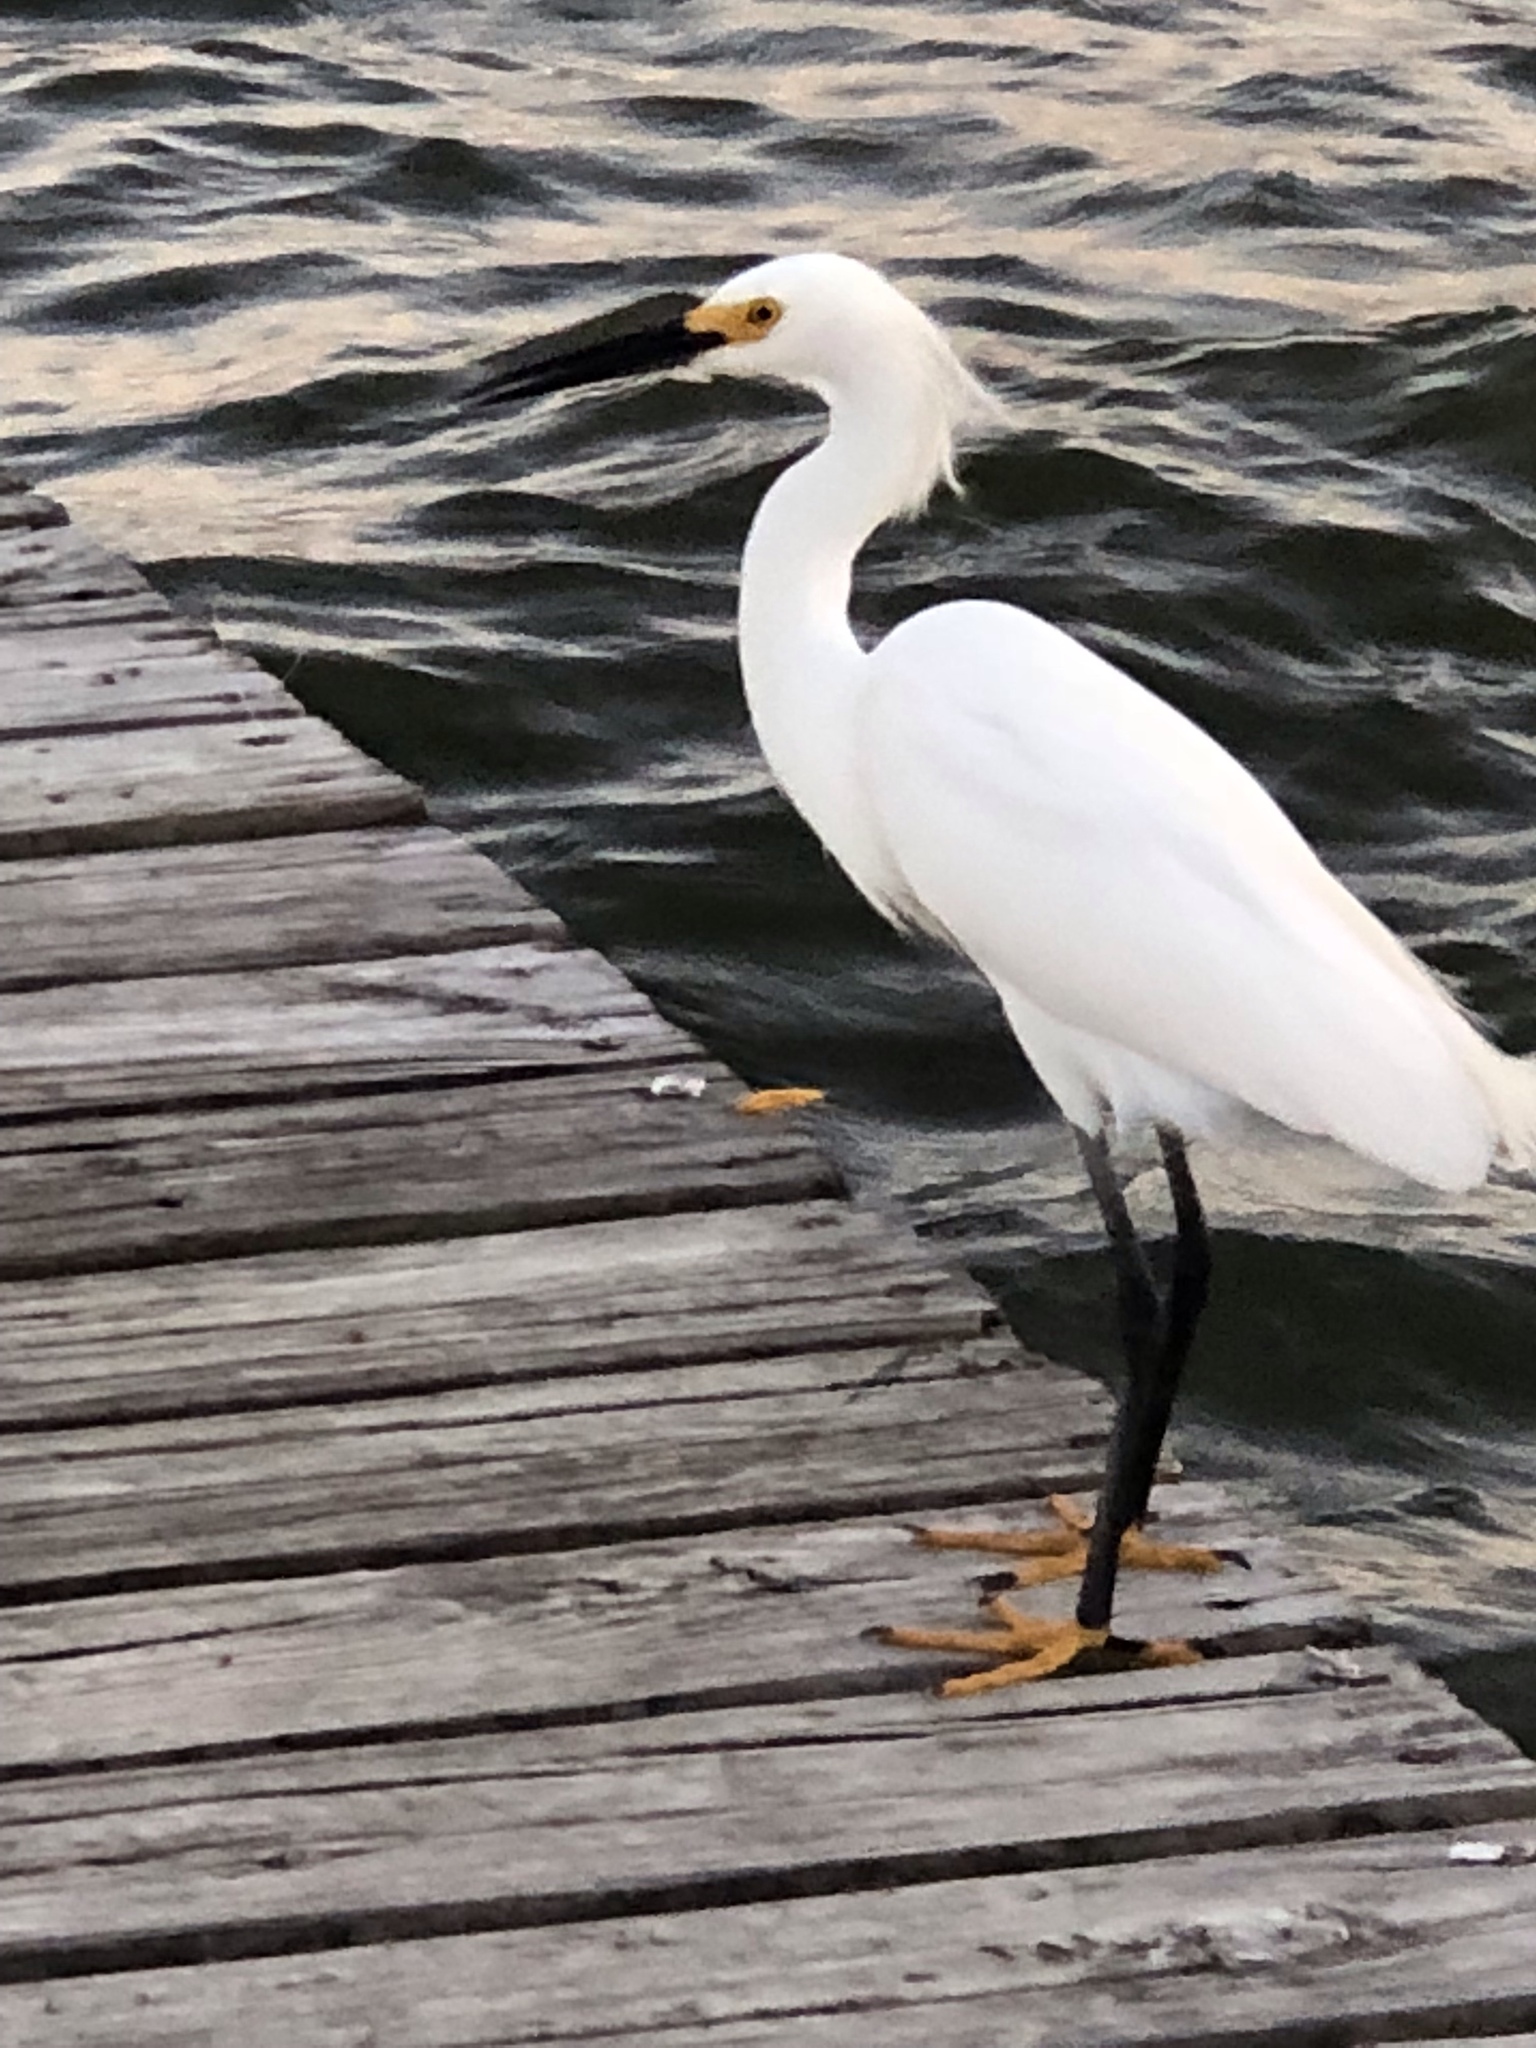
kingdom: Animalia
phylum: Chordata
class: Aves
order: Pelecaniformes
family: Ardeidae
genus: Egretta
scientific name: Egretta thula
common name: Snowy egret
